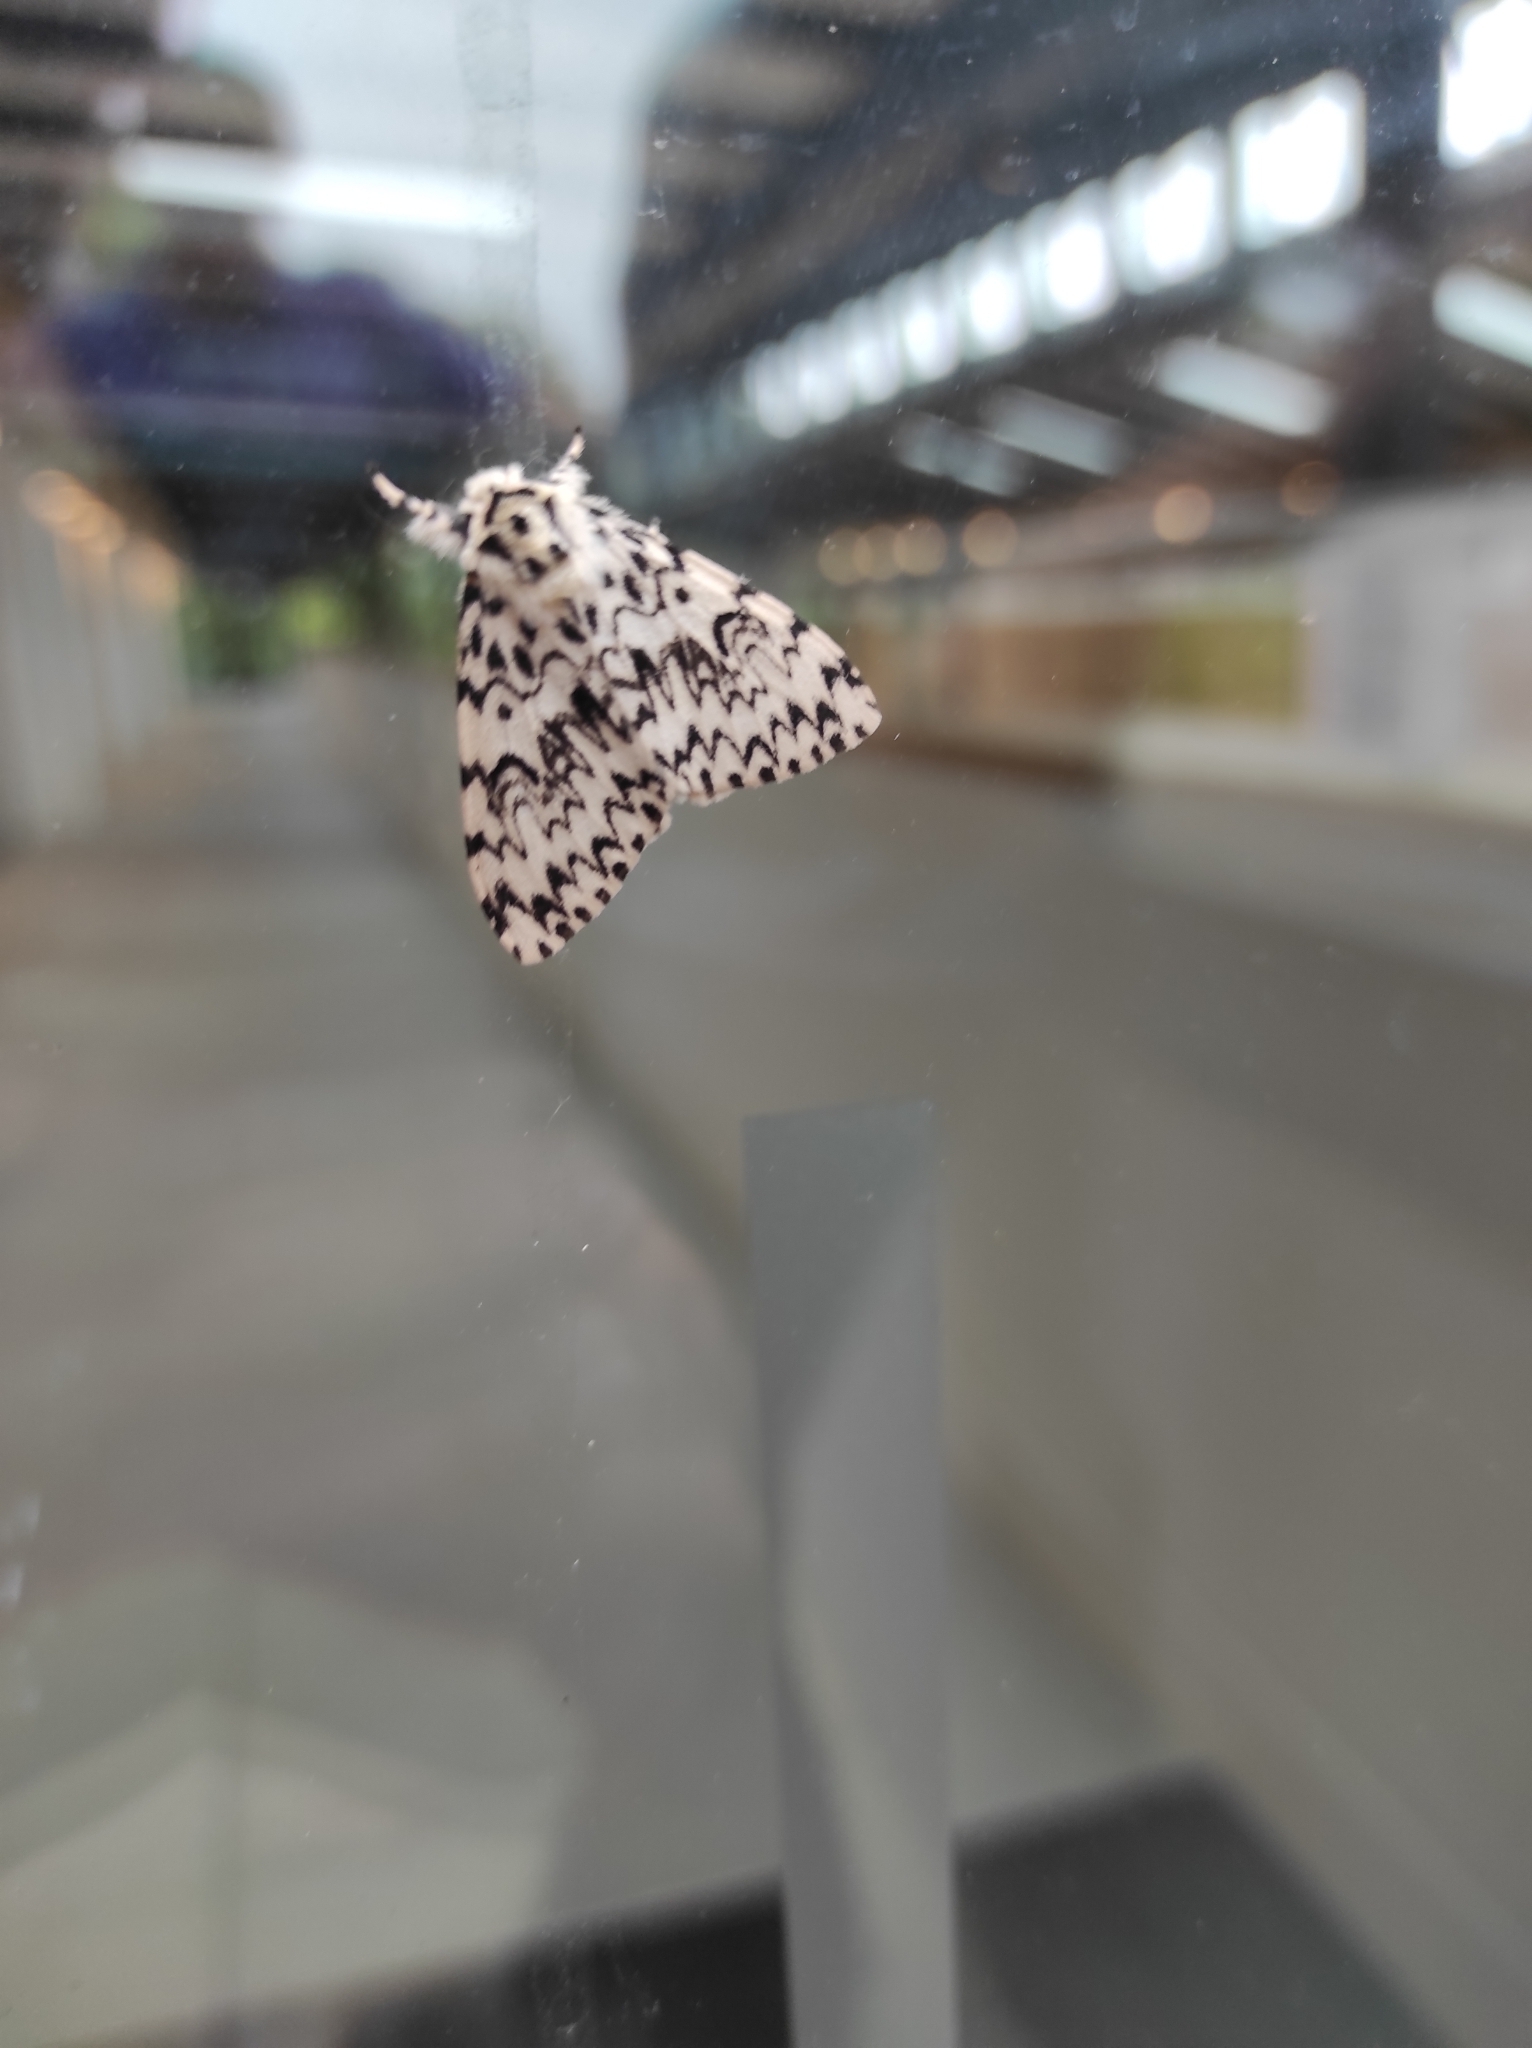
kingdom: Animalia
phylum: Arthropoda
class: Insecta
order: Lepidoptera
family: Erebidae
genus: Lymantria
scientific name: Lymantria monacha
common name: Black arches
